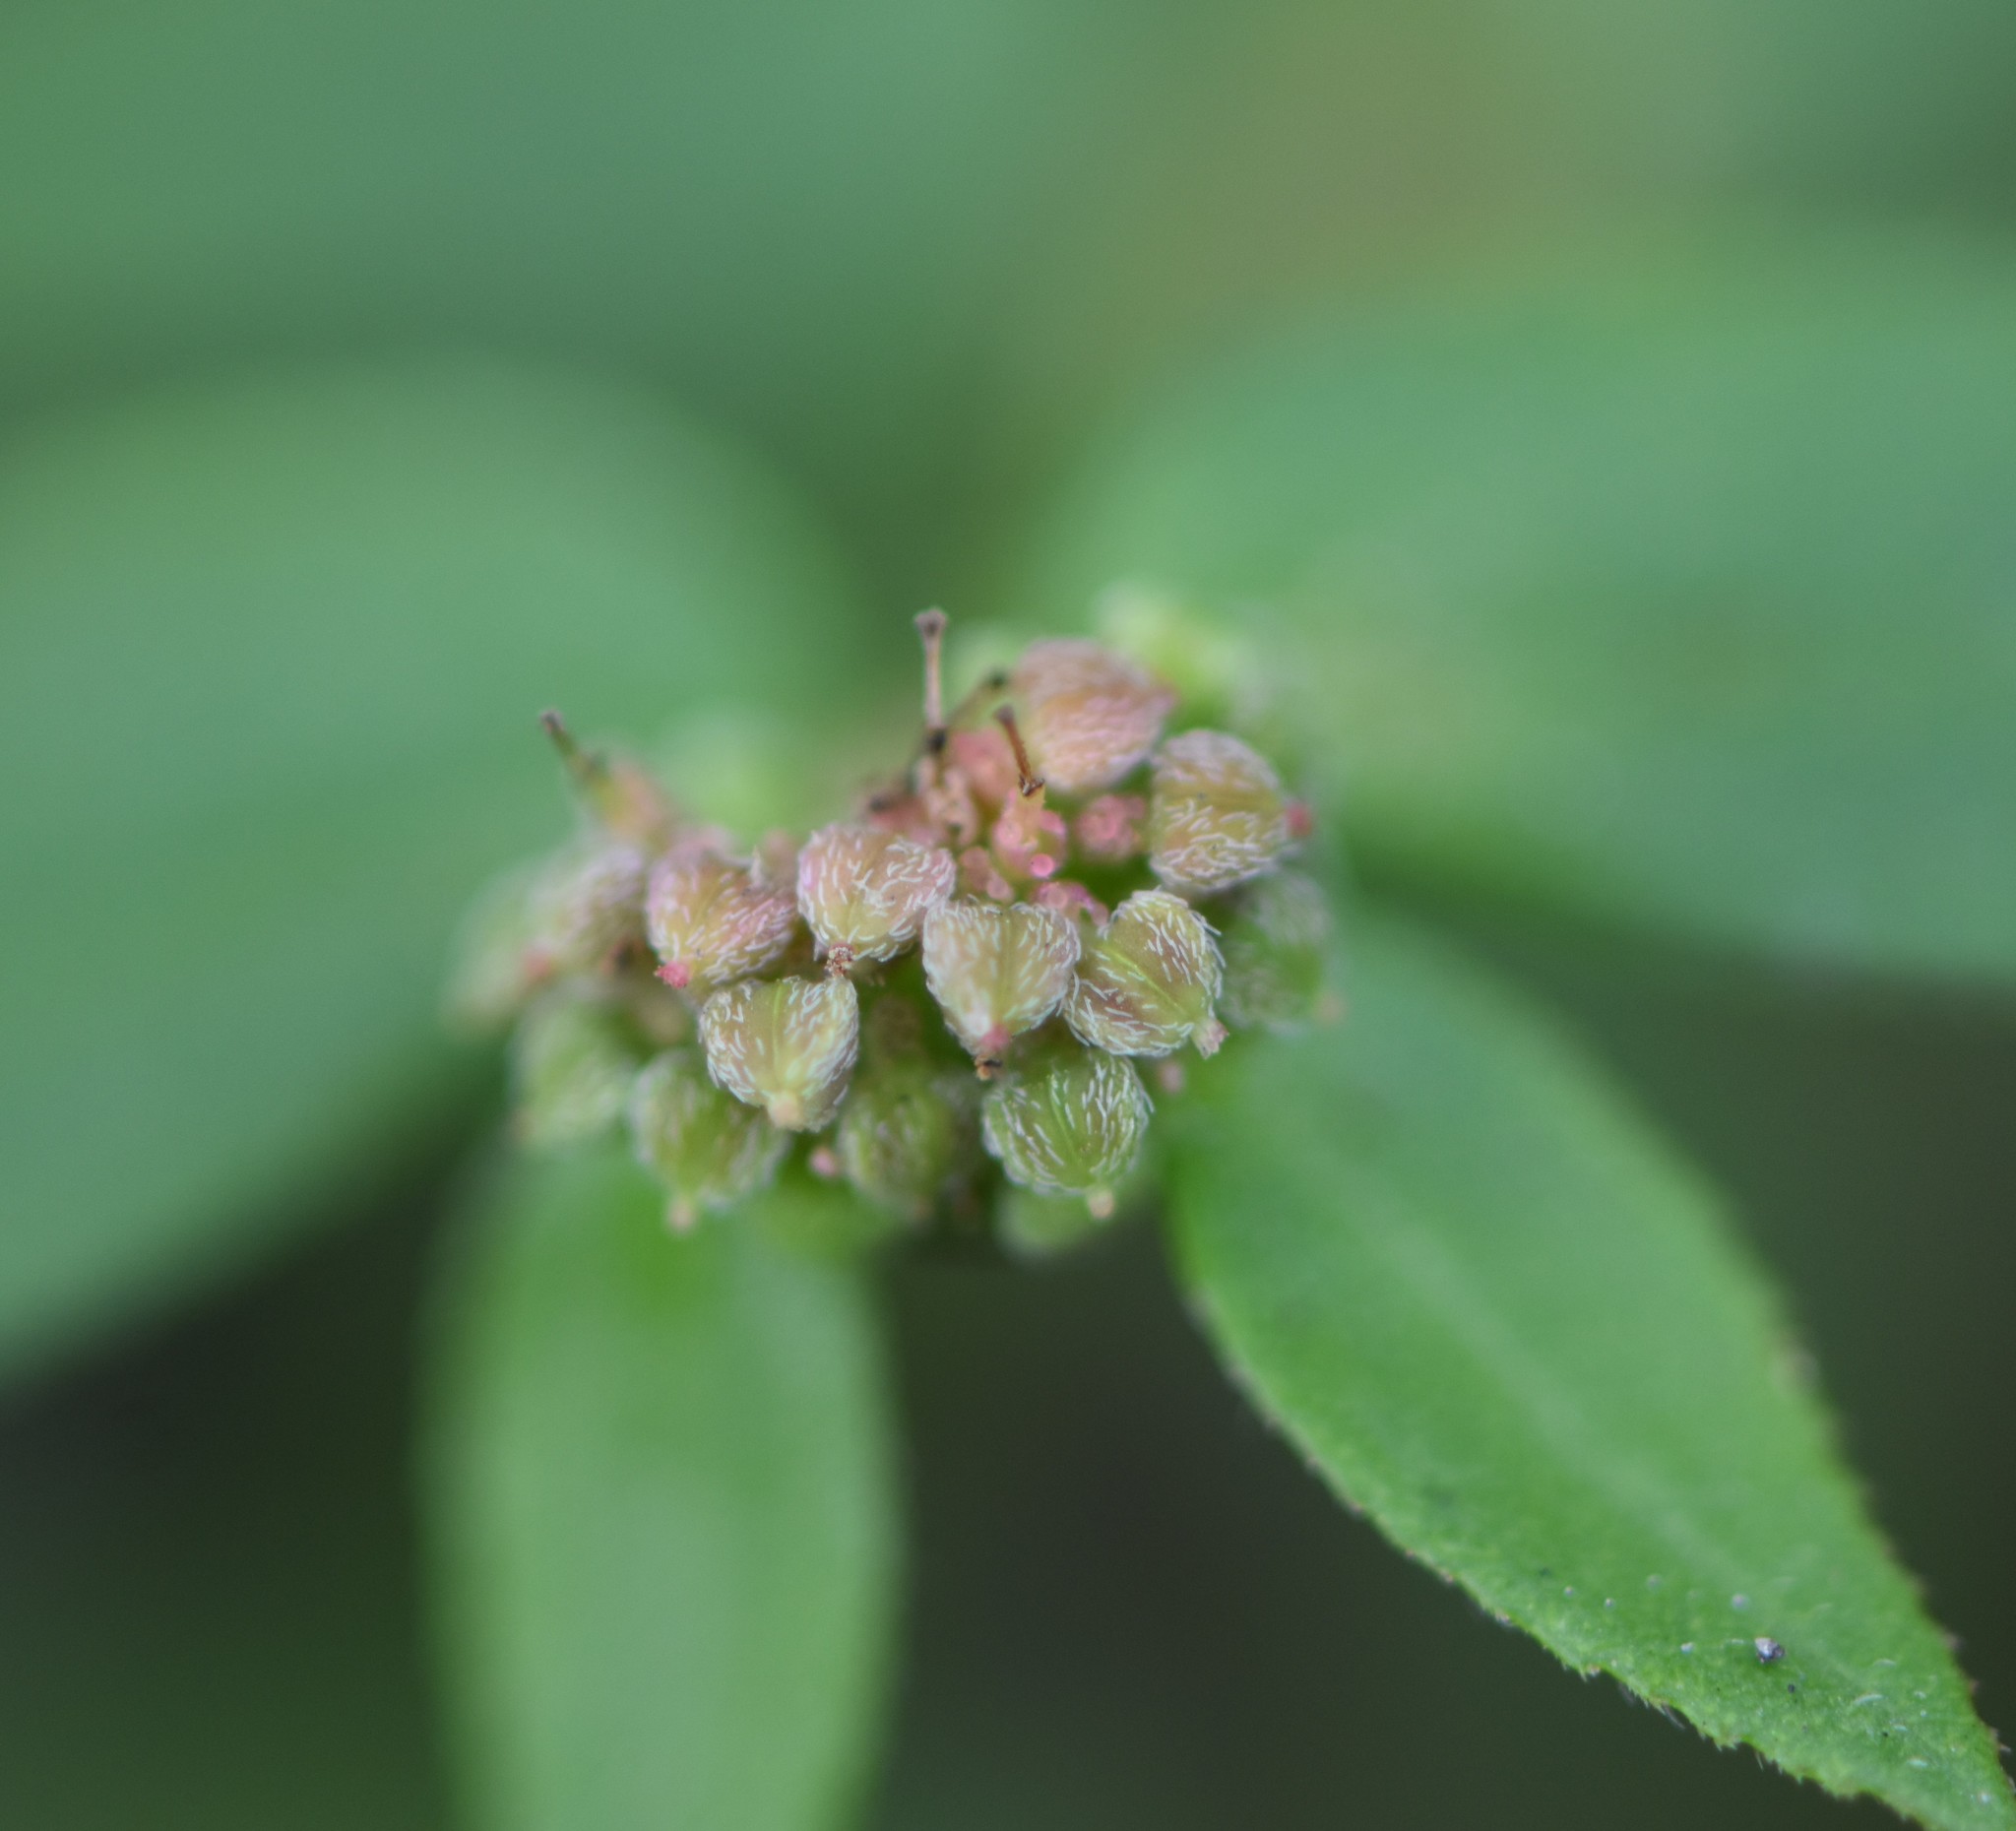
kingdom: Plantae
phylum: Tracheophyta
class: Magnoliopsida
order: Malpighiales
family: Euphorbiaceae
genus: Euphorbia
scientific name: Euphorbia ophthalmica
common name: Florida hammock sandmat
